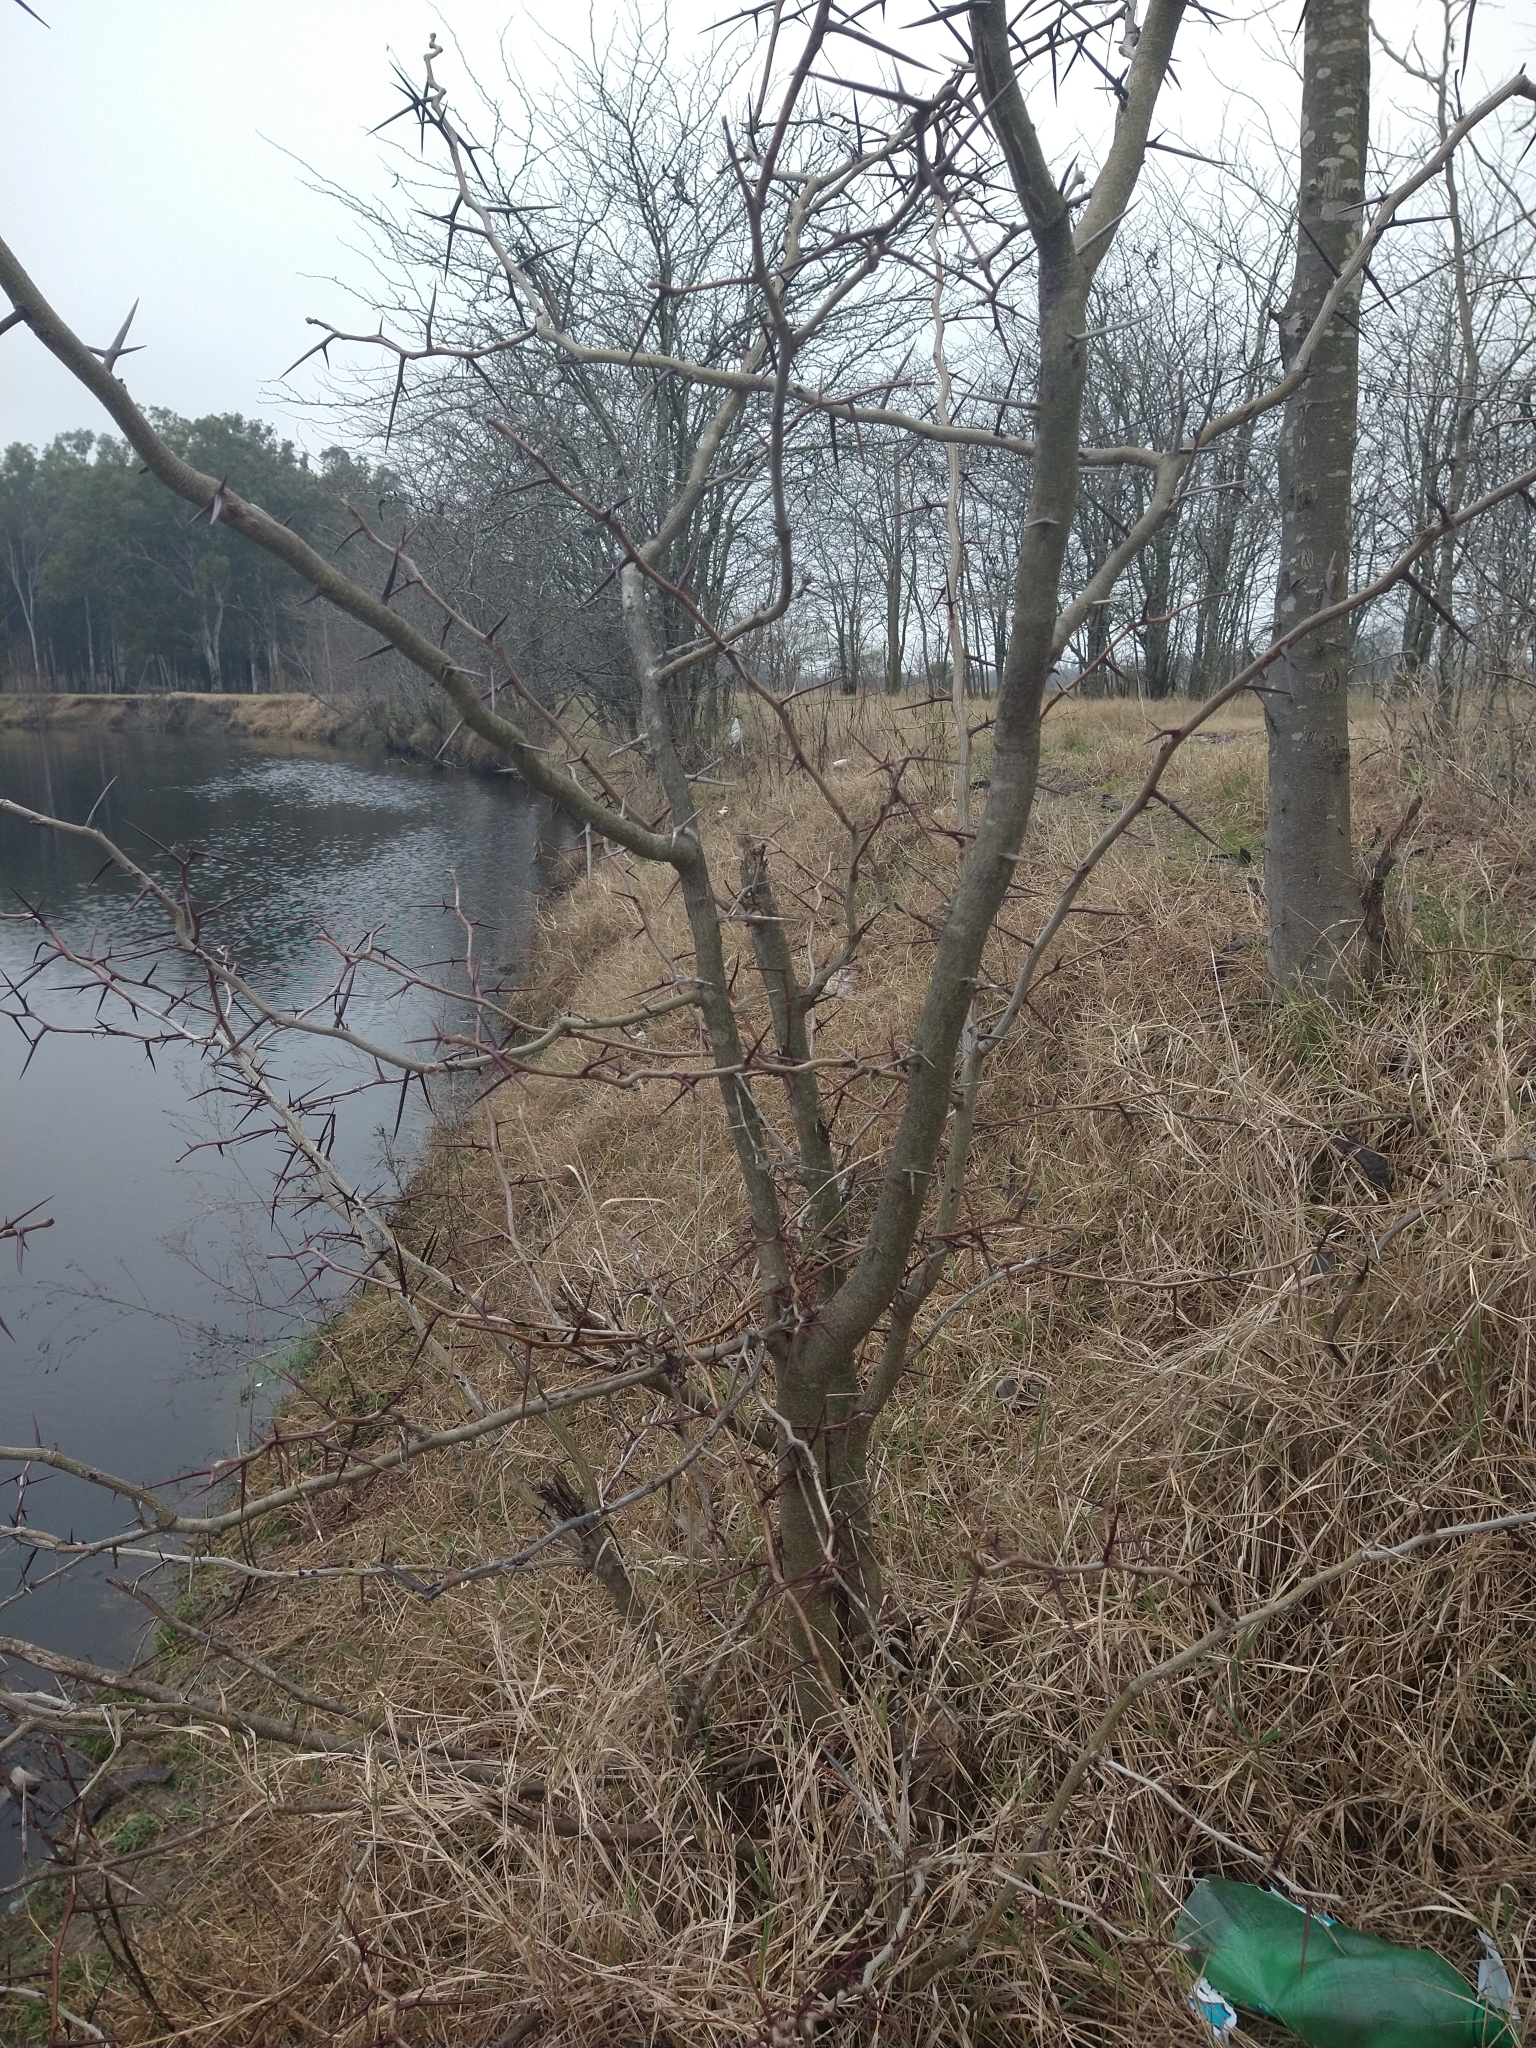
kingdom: Plantae
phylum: Tracheophyta
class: Magnoliopsida
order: Fabales
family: Fabaceae
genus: Gleditsia
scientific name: Gleditsia triacanthos
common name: Common honeylocust
